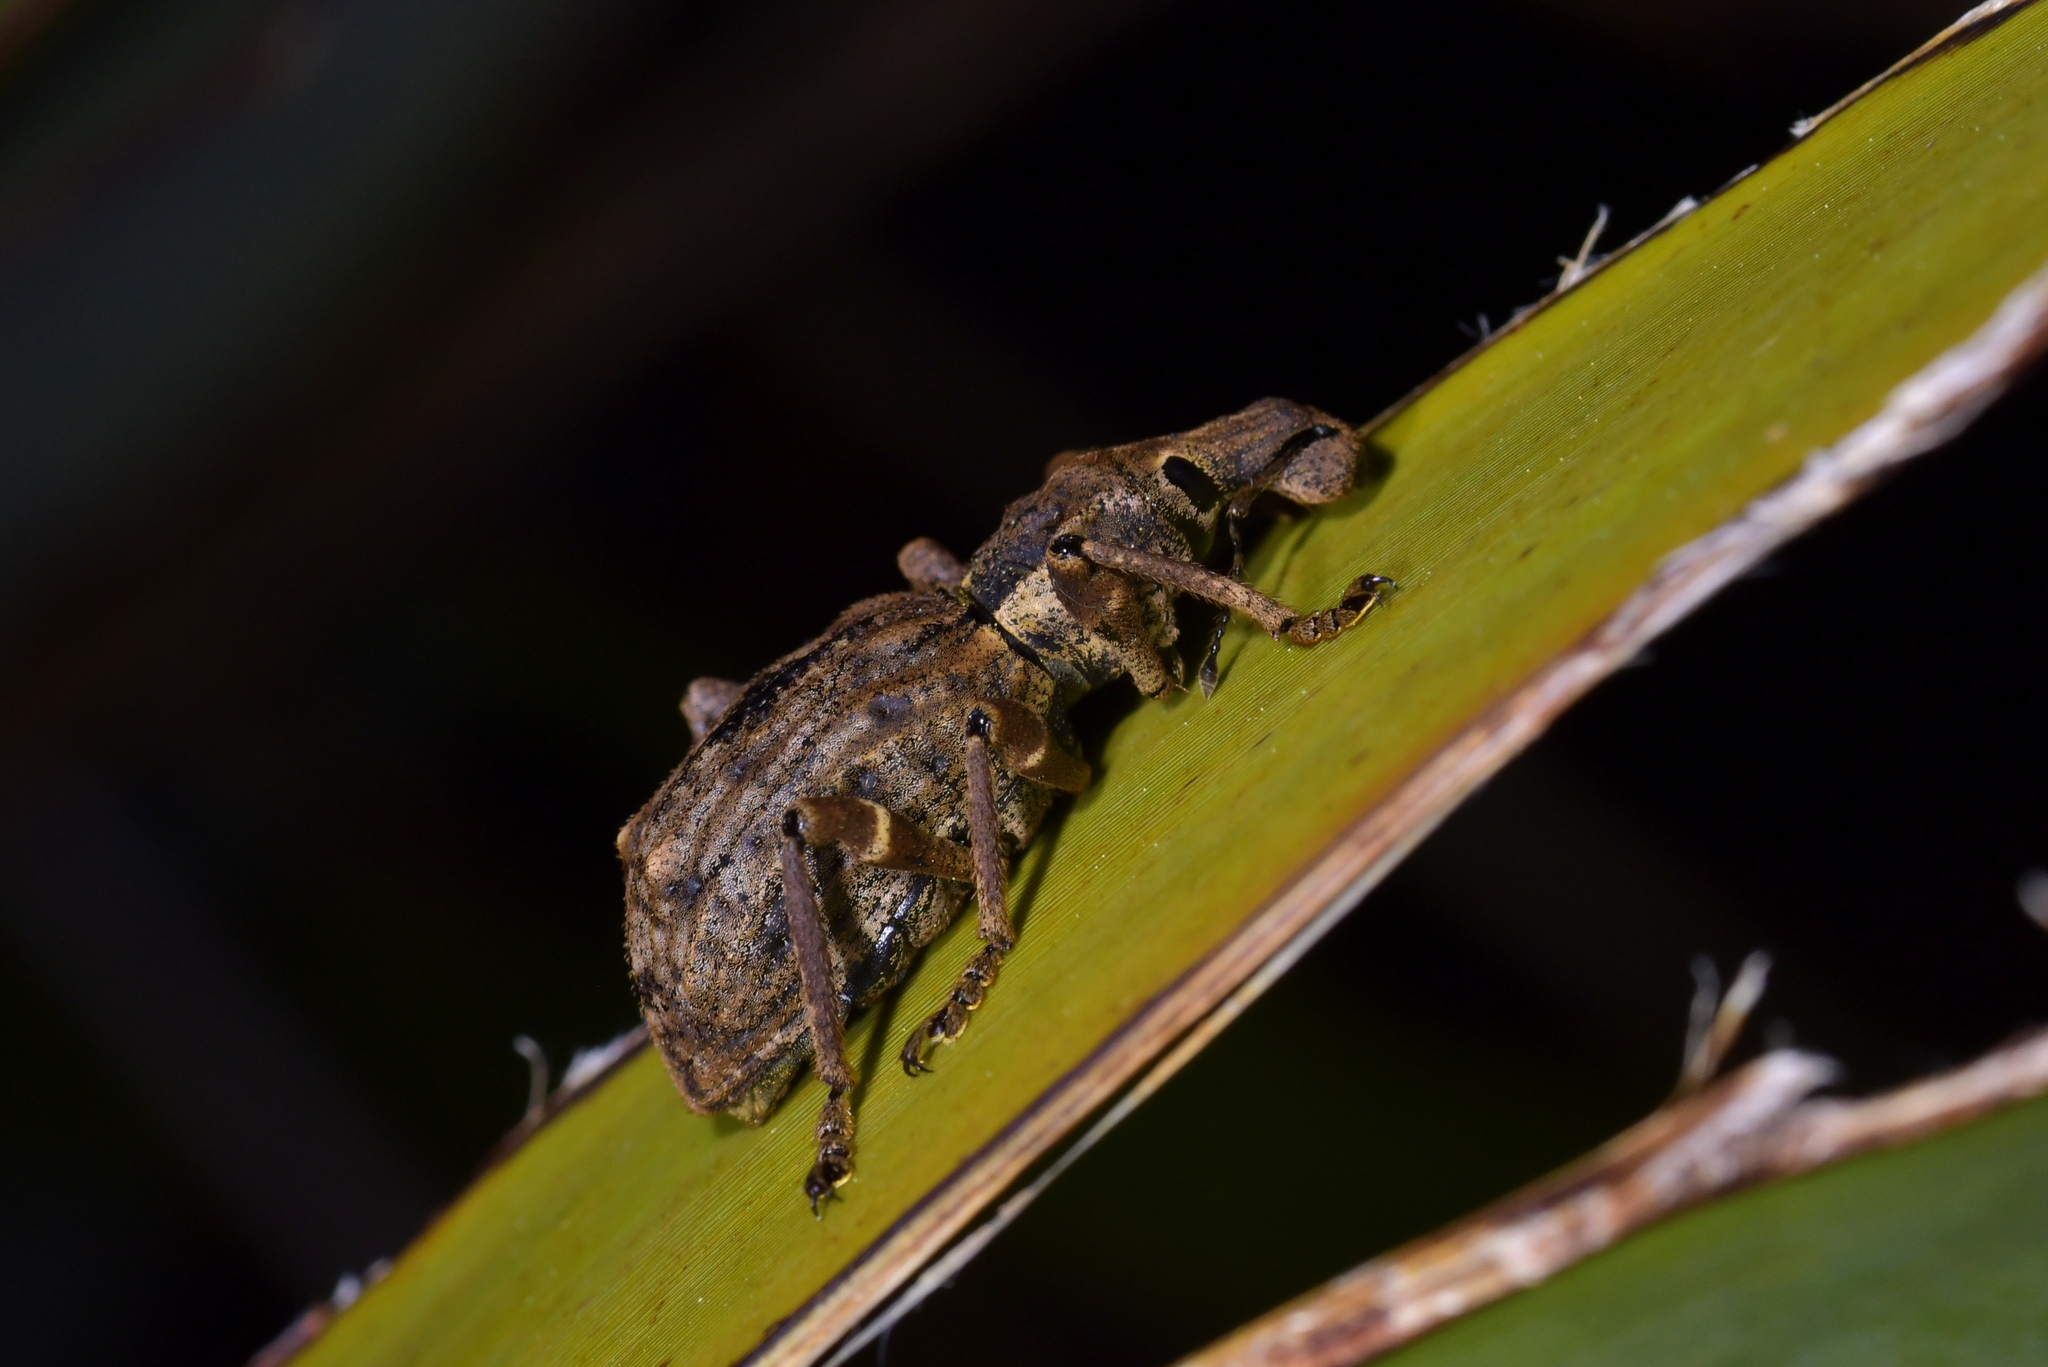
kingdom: Animalia
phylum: Arthropoda
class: Insecta
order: Coleoptera
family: Curculionidae
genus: Anagotus
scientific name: Anagotus fairburni
